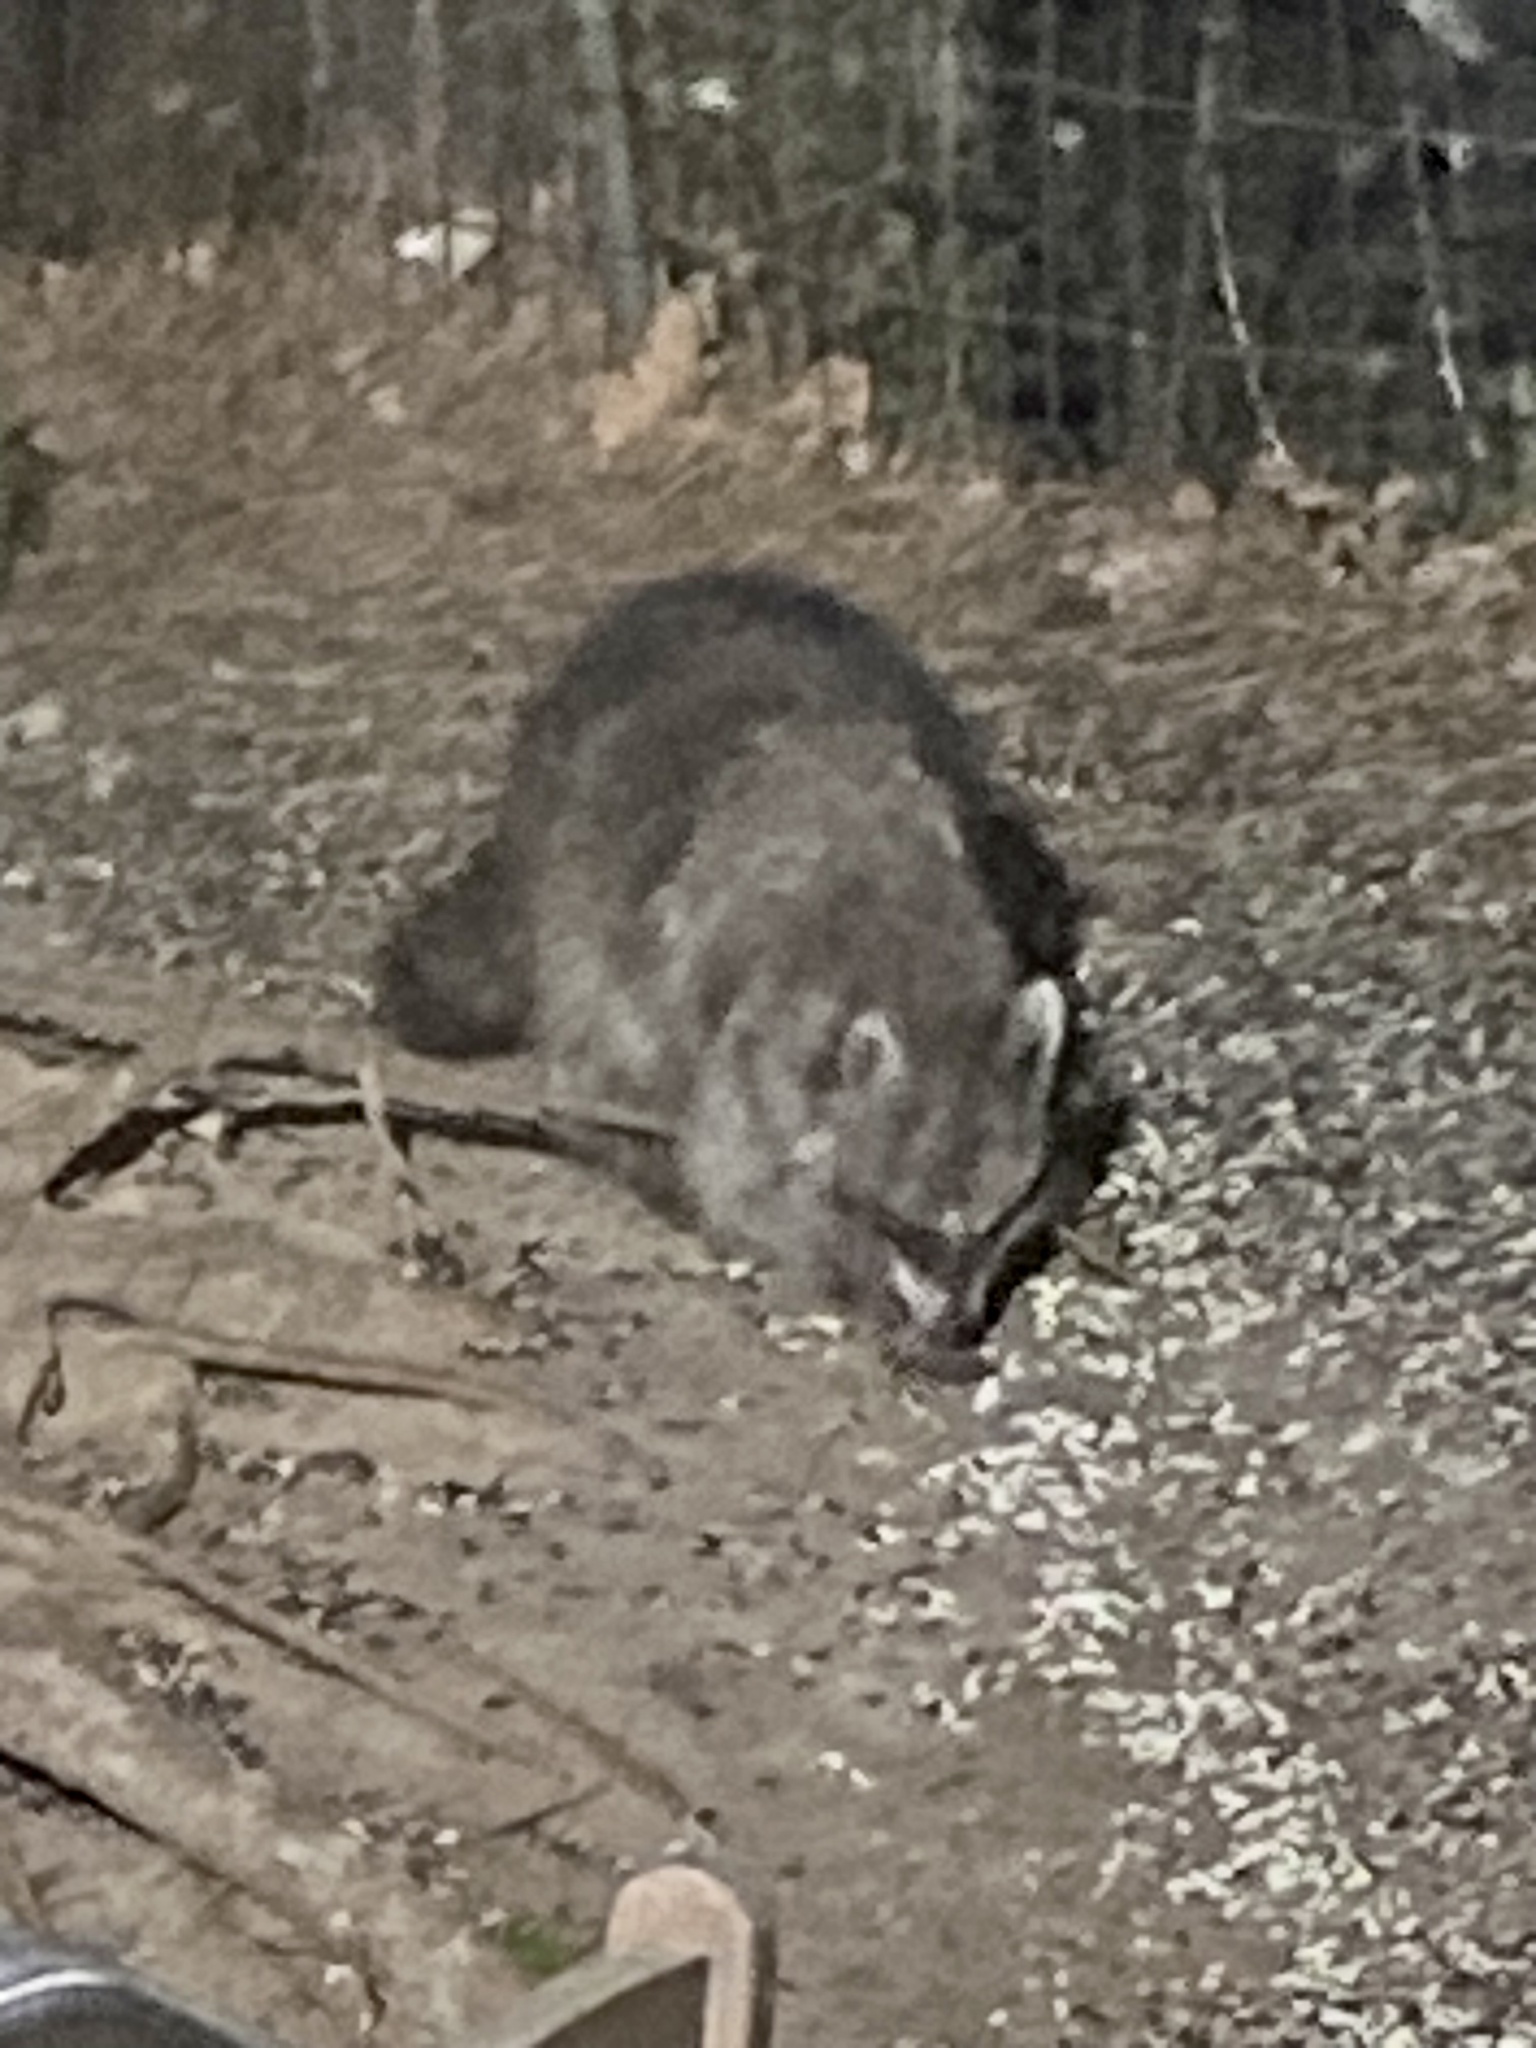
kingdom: Animalia
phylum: Chordata
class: Mammalia
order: Carnivora
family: Procyonidae
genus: Procyon
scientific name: Procyon lotor
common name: Raccoon
